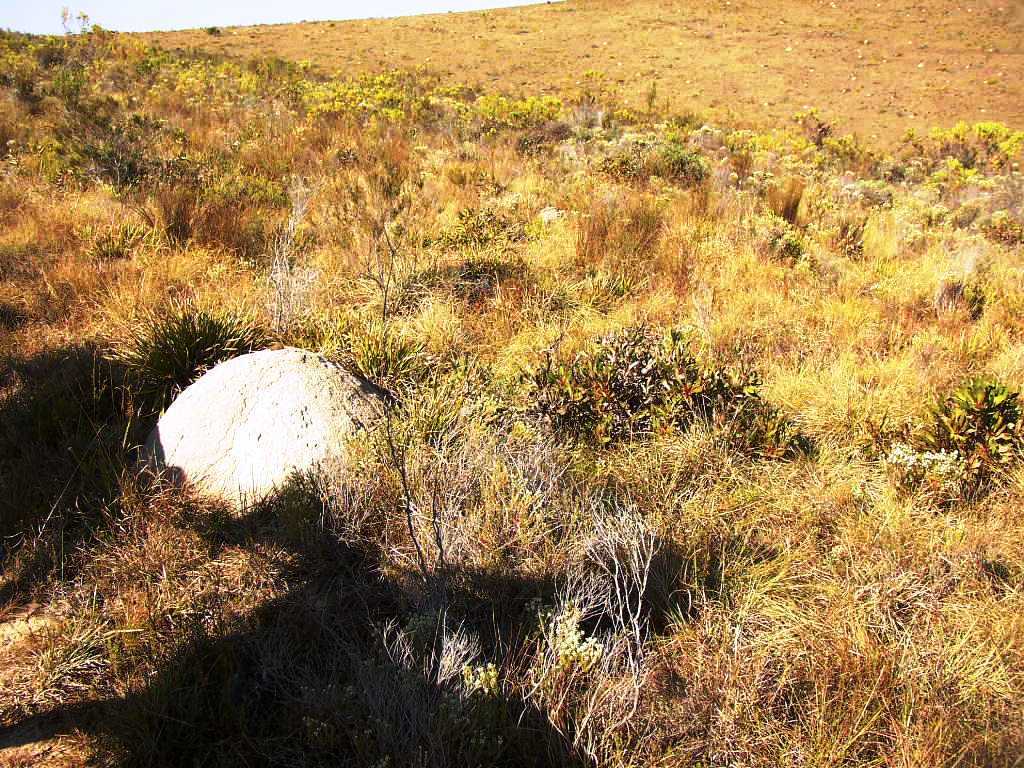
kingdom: Plantae
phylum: Tracheophyta
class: Magnoliopsida
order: Proteales
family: Proteaceae
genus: Protea
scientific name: Protea foliosa
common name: Leafy sugarbush
